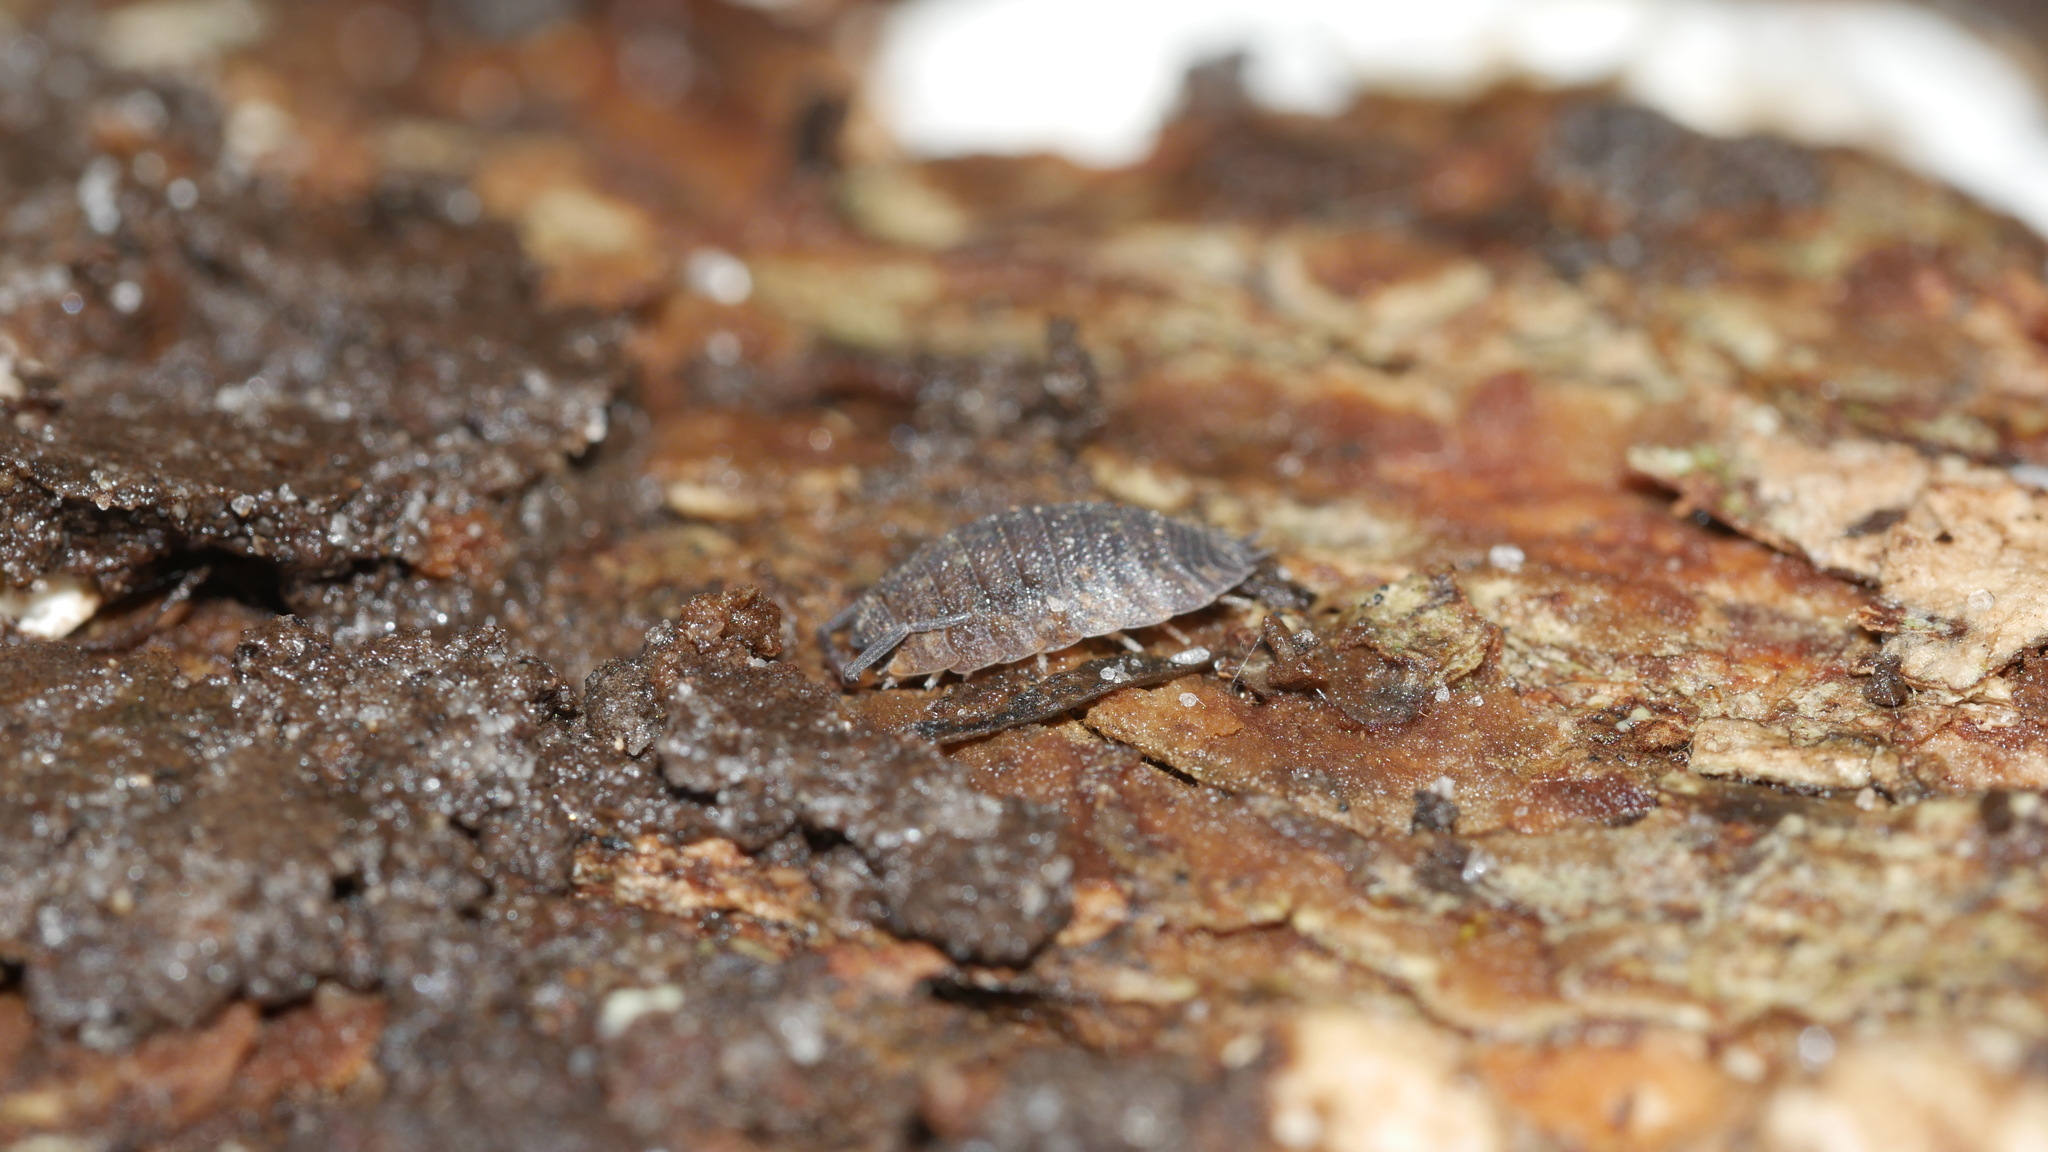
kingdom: Animalia
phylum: Arthropoda
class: Malacostraca
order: Isopoda
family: Porcellionidae
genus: Porcellio
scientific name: Porcellio scaber
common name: Common rough woodlouse
